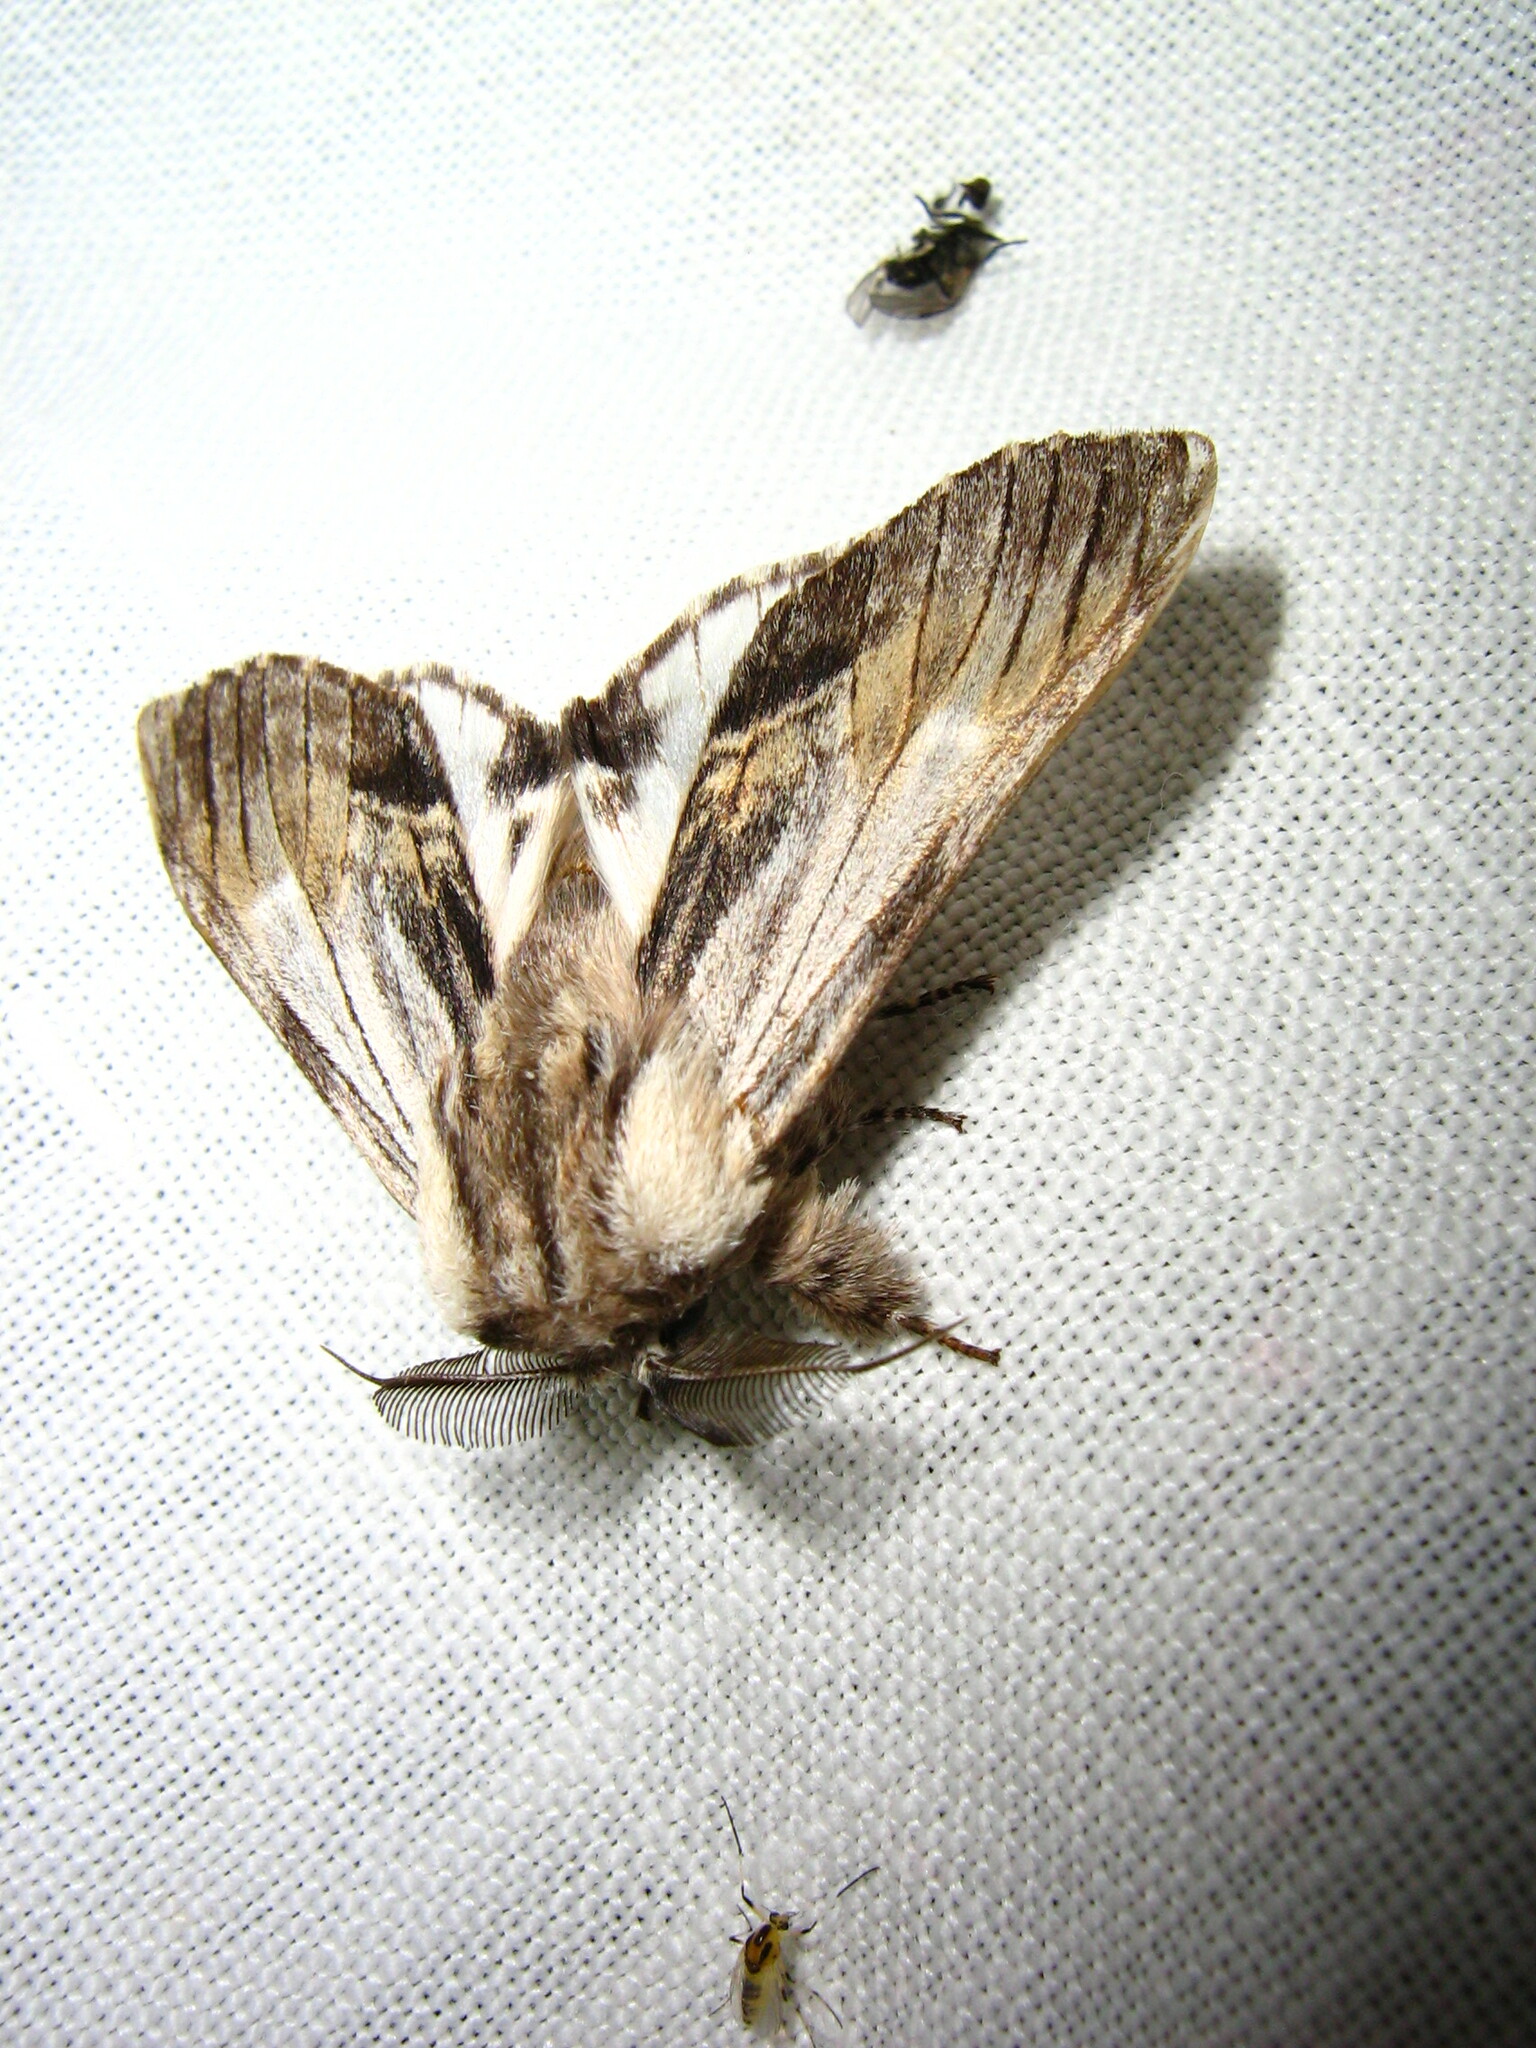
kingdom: Animalia
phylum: Arthropoda
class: Insecta
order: Lepidoptera
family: Notodontidae
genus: Harpyia
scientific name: Harpyia milhauseri
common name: Tawny prominent
